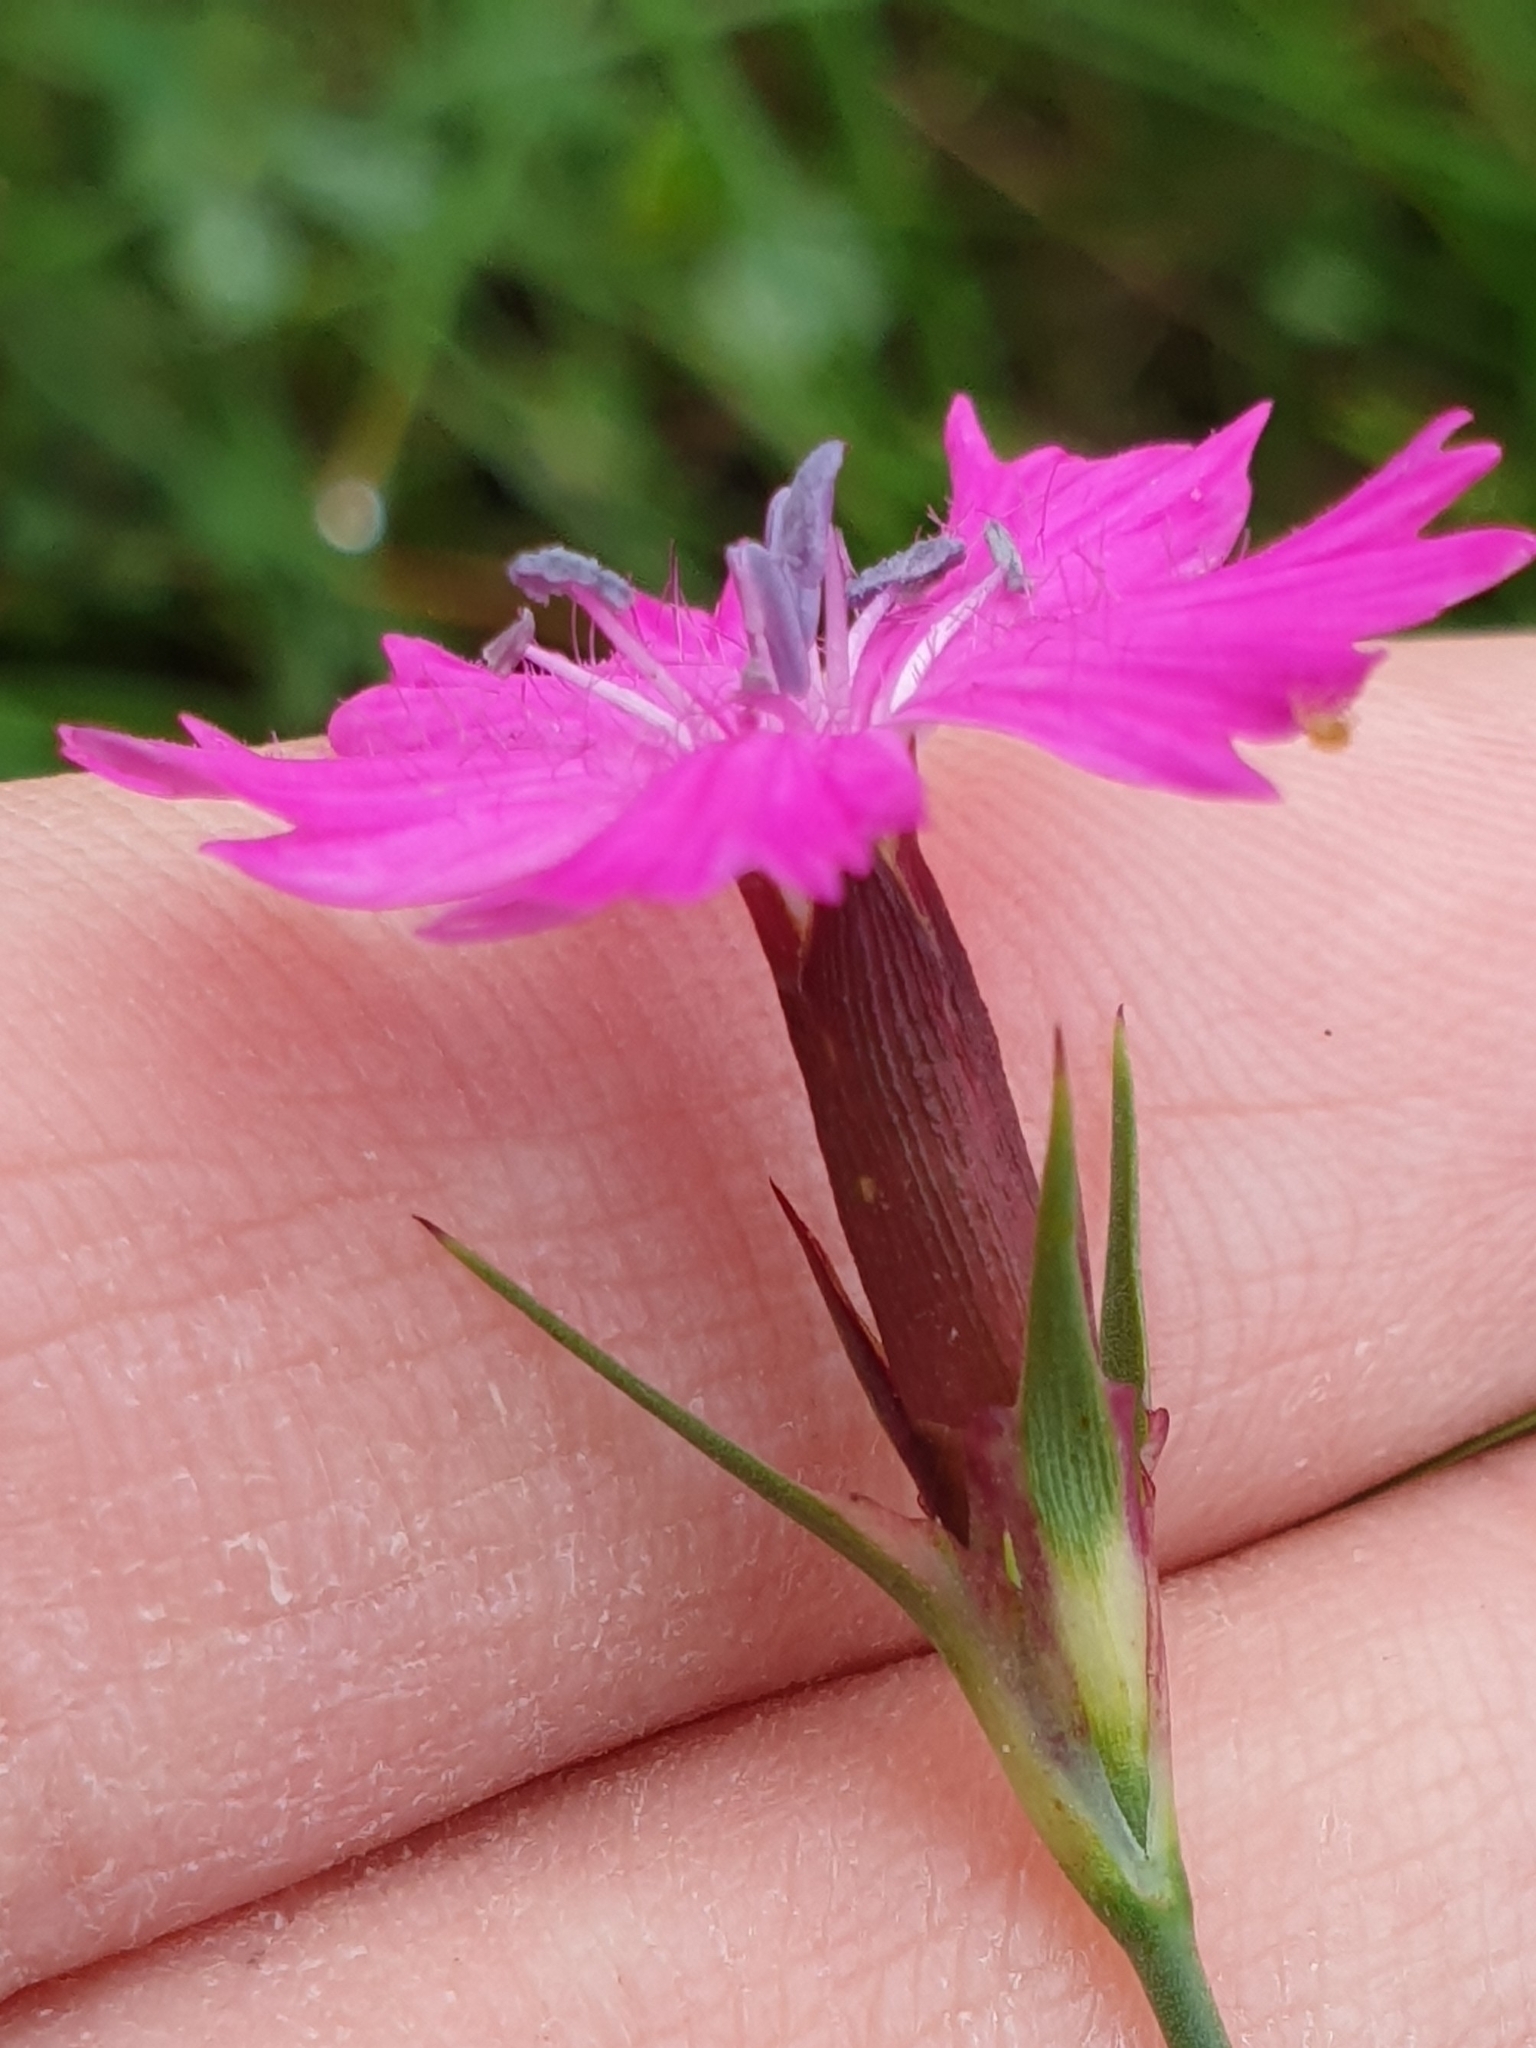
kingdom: Plantae
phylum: Tracheophyta
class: Magnoliopsida
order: Caryophyllales
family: Caryophyllaceae
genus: Dianthus
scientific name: Dianthus carthusianorum
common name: Carthusian pink
